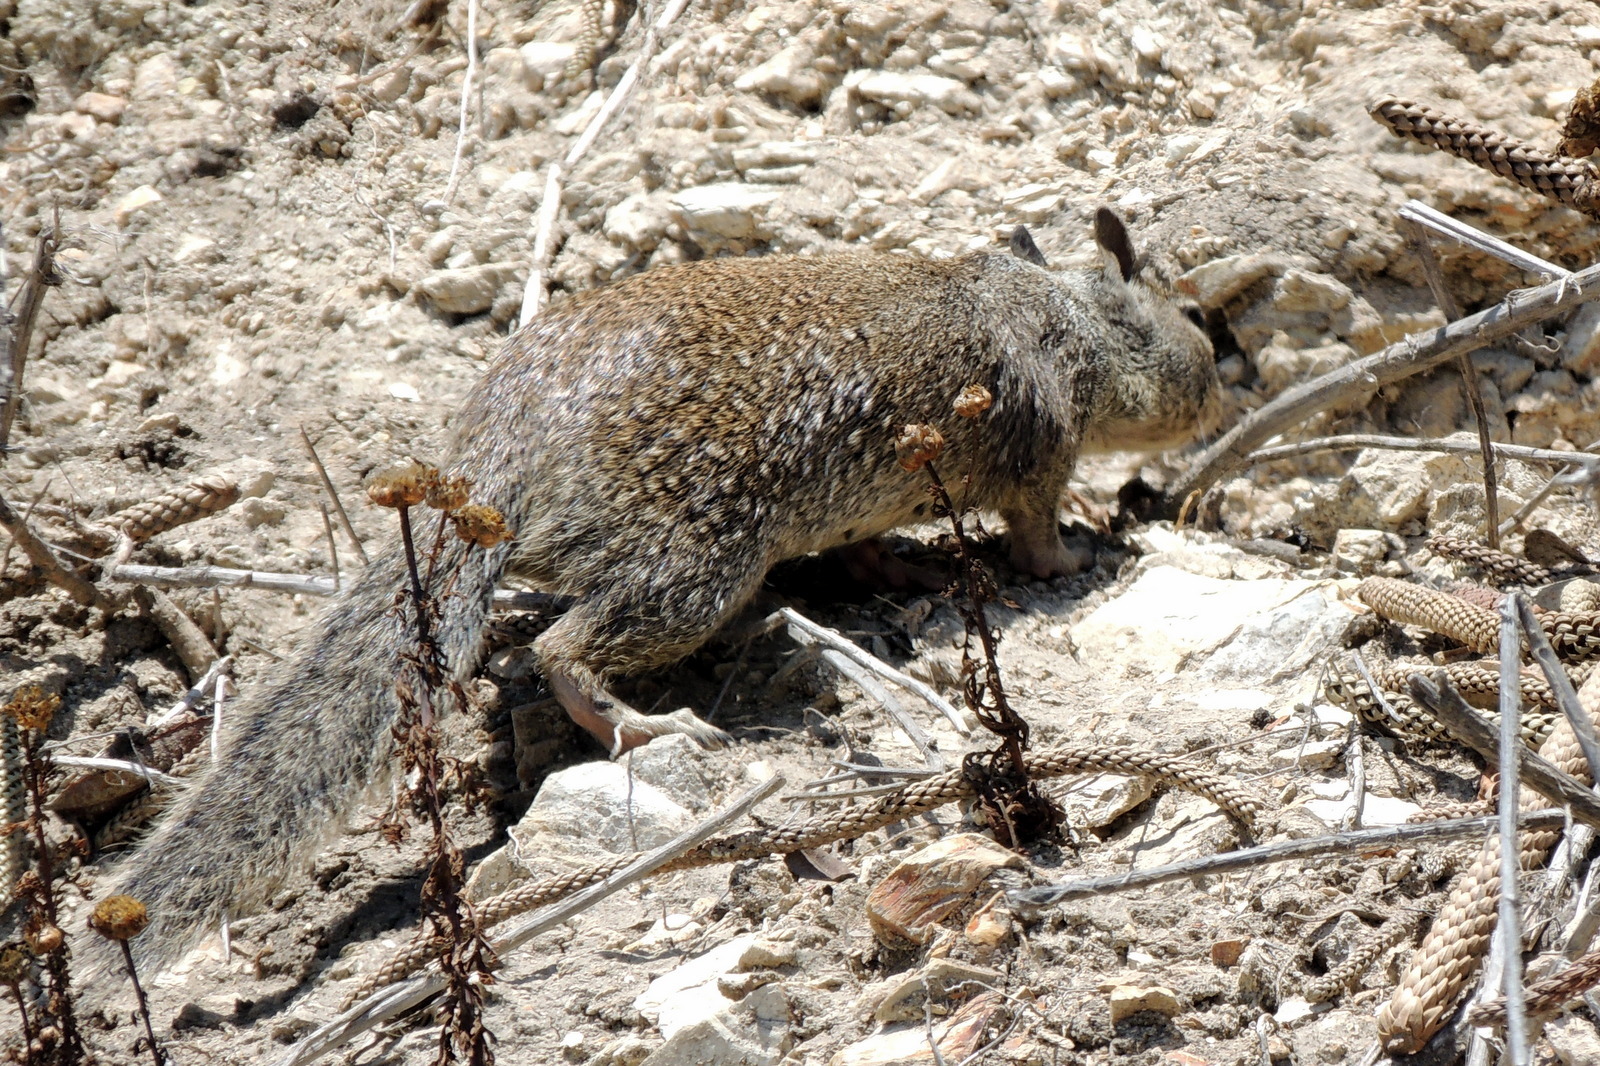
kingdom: Animalia
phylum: Chordata
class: Mammalia
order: Rodentia
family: Sciuridae
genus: Otospermophilus
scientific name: Otospermophilus beecheyi
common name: California ground squirrel
